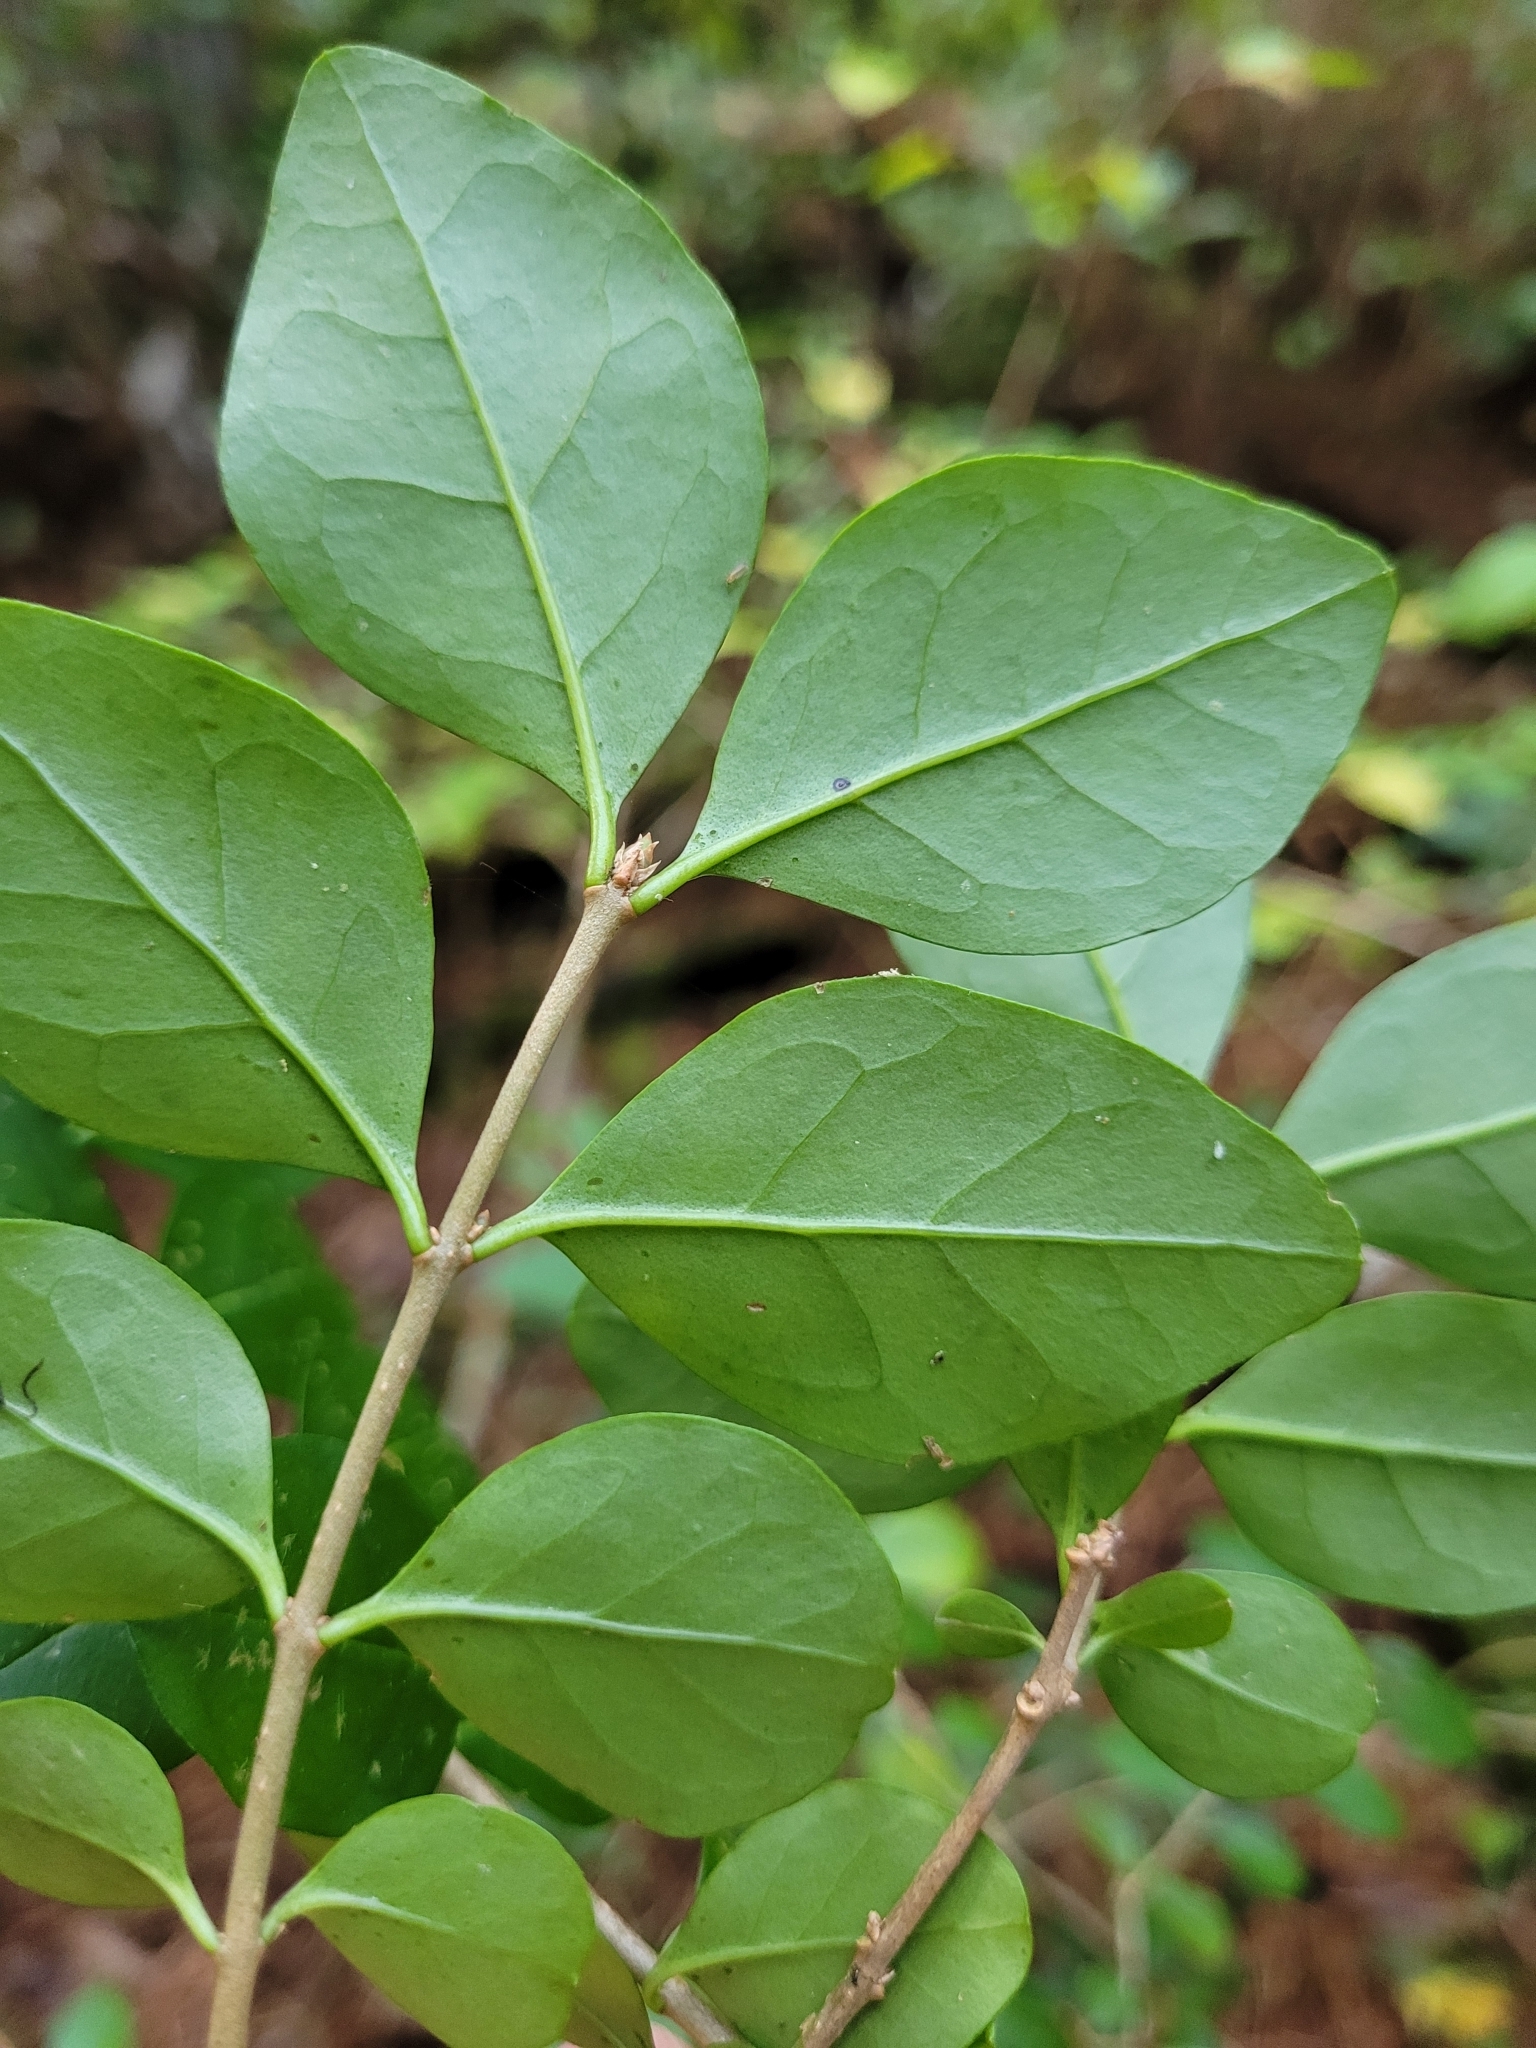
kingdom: Plantae
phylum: Tracheophyta
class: Magnoliopsida
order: Lamiales
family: Oleaceae
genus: Ligustrum
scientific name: Ligustrum sinense
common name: Chinese privet
